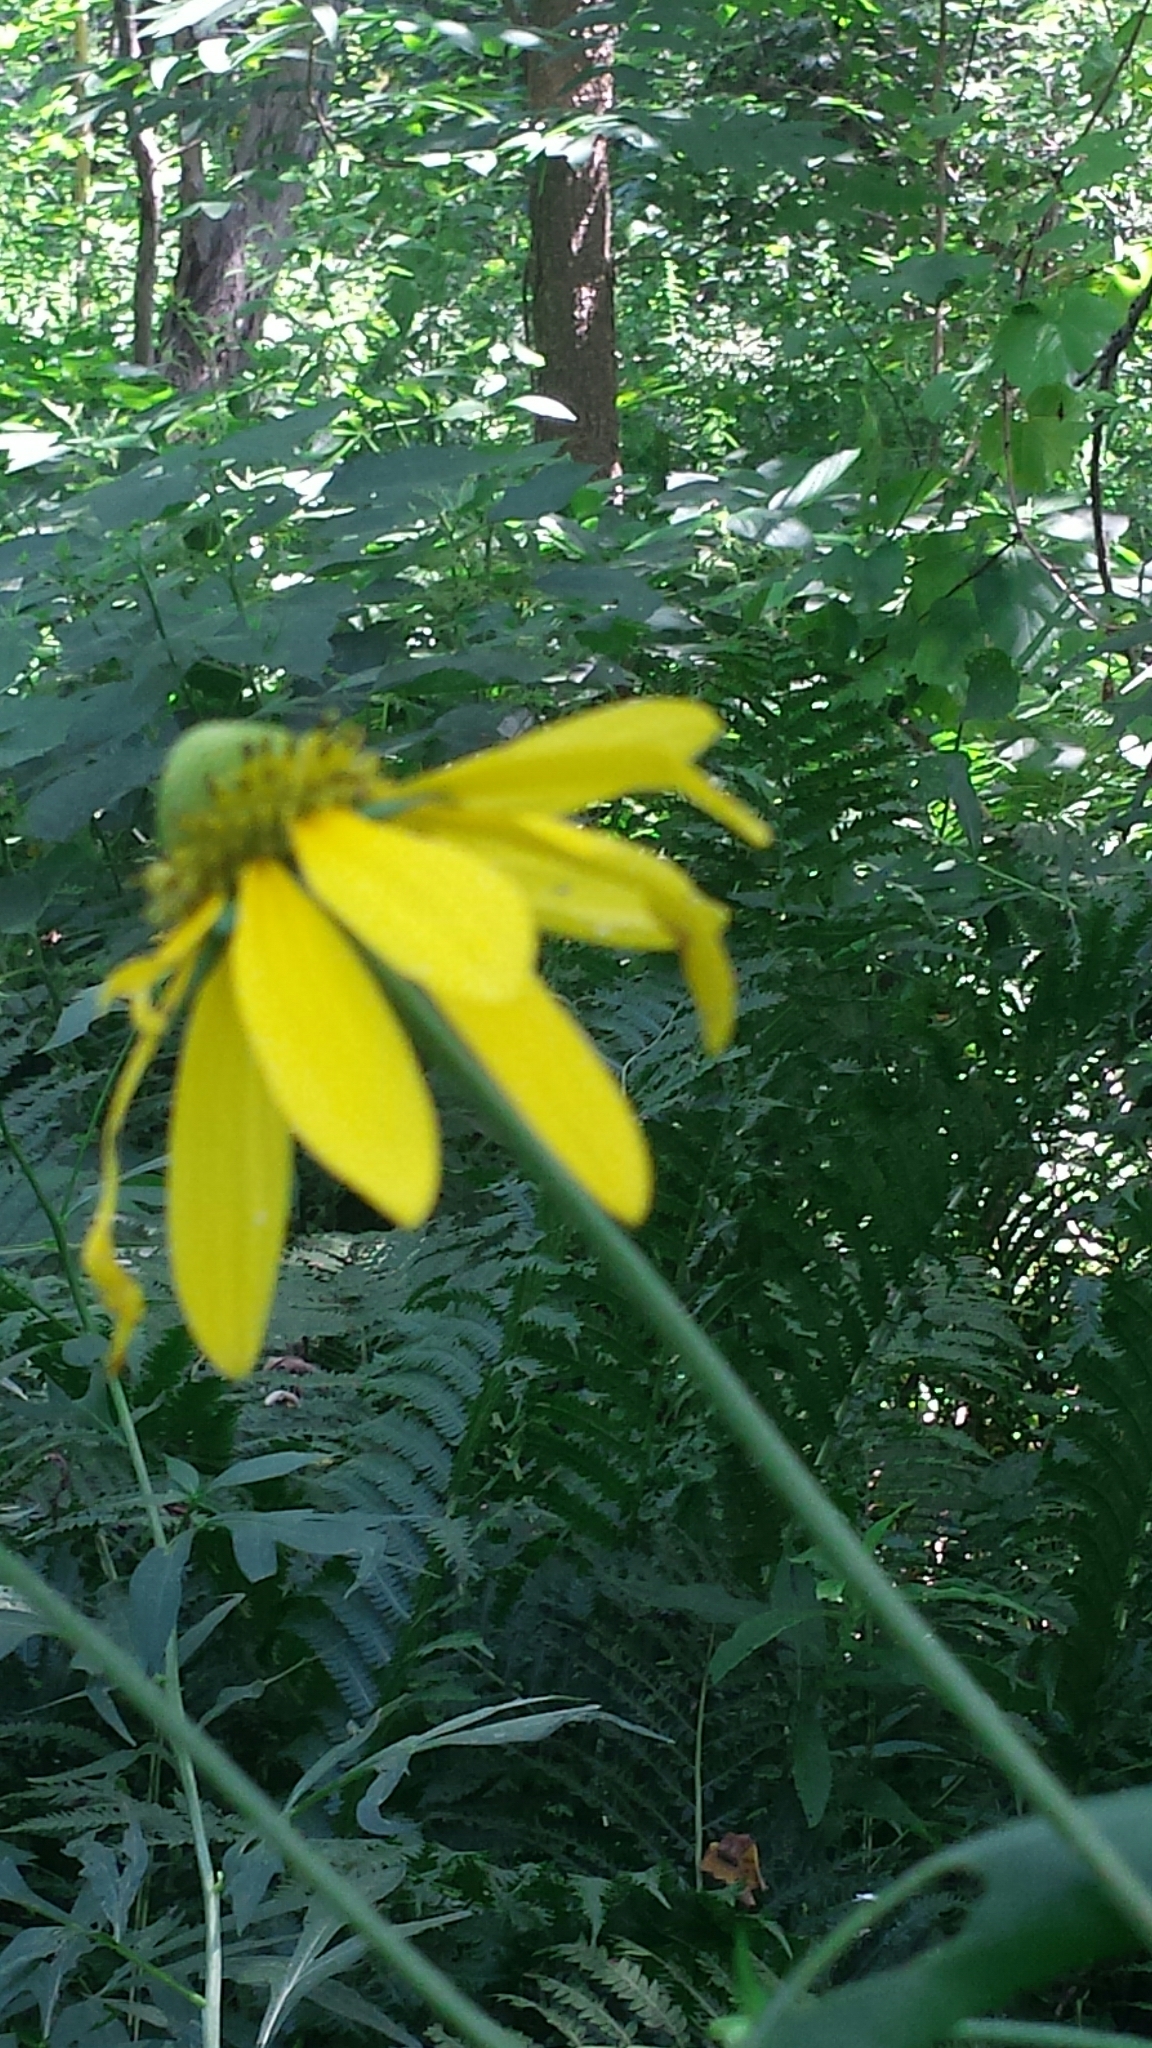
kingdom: Plantae
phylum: Tracheophyta
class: Magnoliopsida
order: Asterales
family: Asteraceae
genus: Rudbeckia
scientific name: Rudbeckia laciniata
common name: Coneflower
